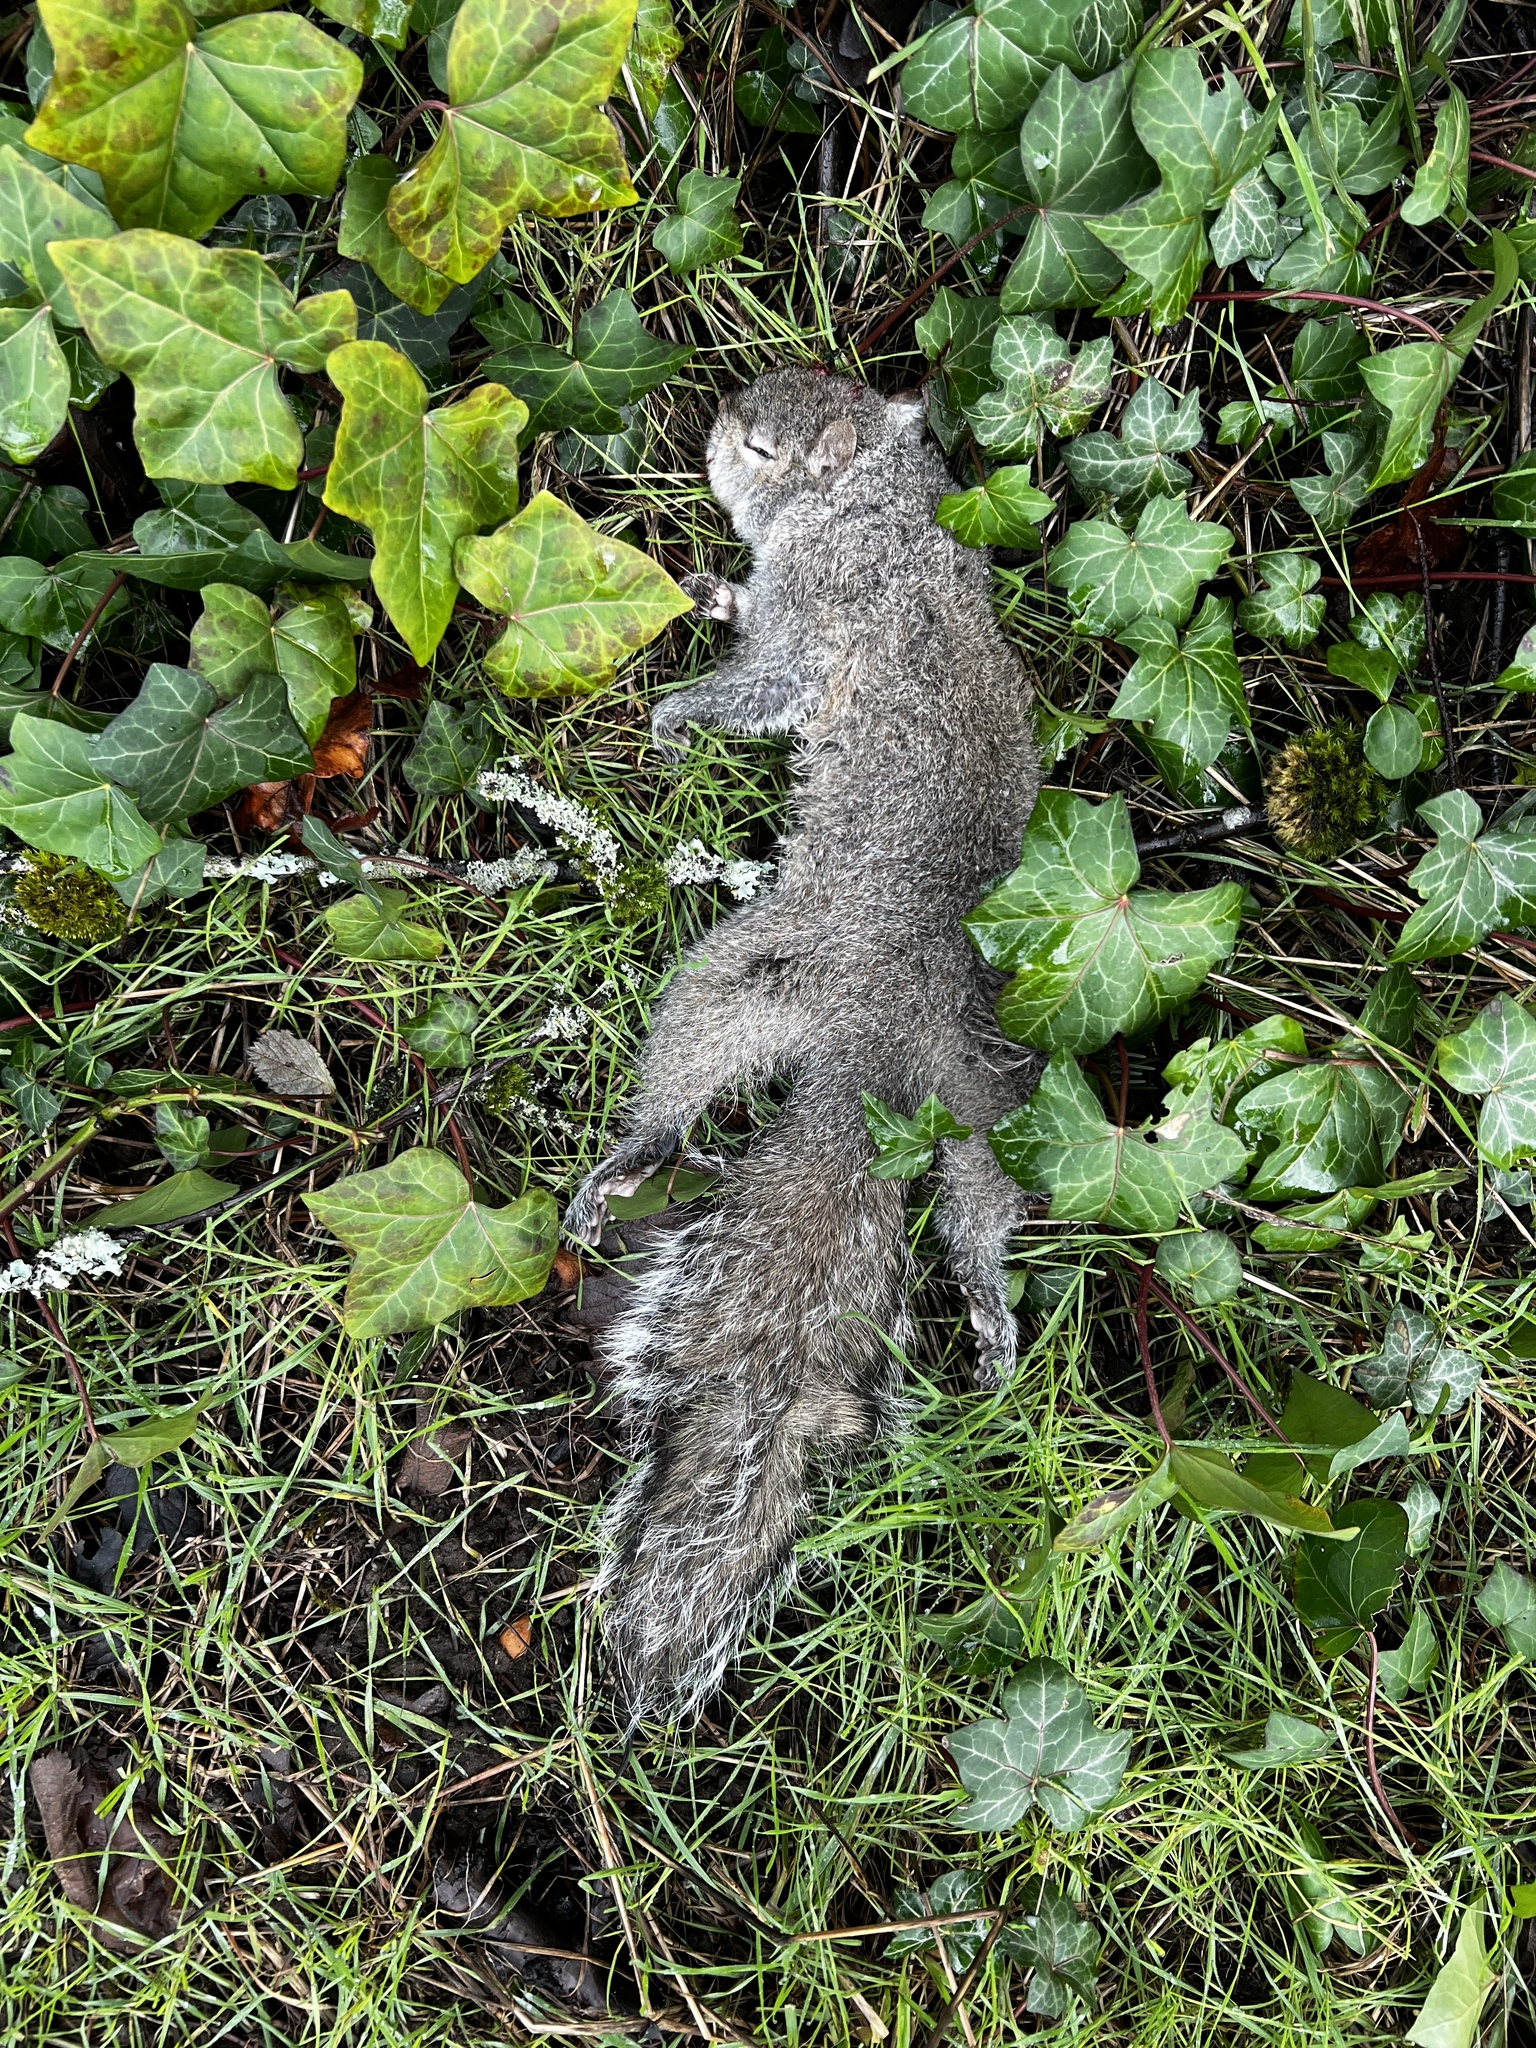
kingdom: Animalia
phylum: Chordata
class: Mammalia
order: Rodentia
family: Sciuridae
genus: Sciurus
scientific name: Sciurus carolinensis
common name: Eastern gray squirrel
